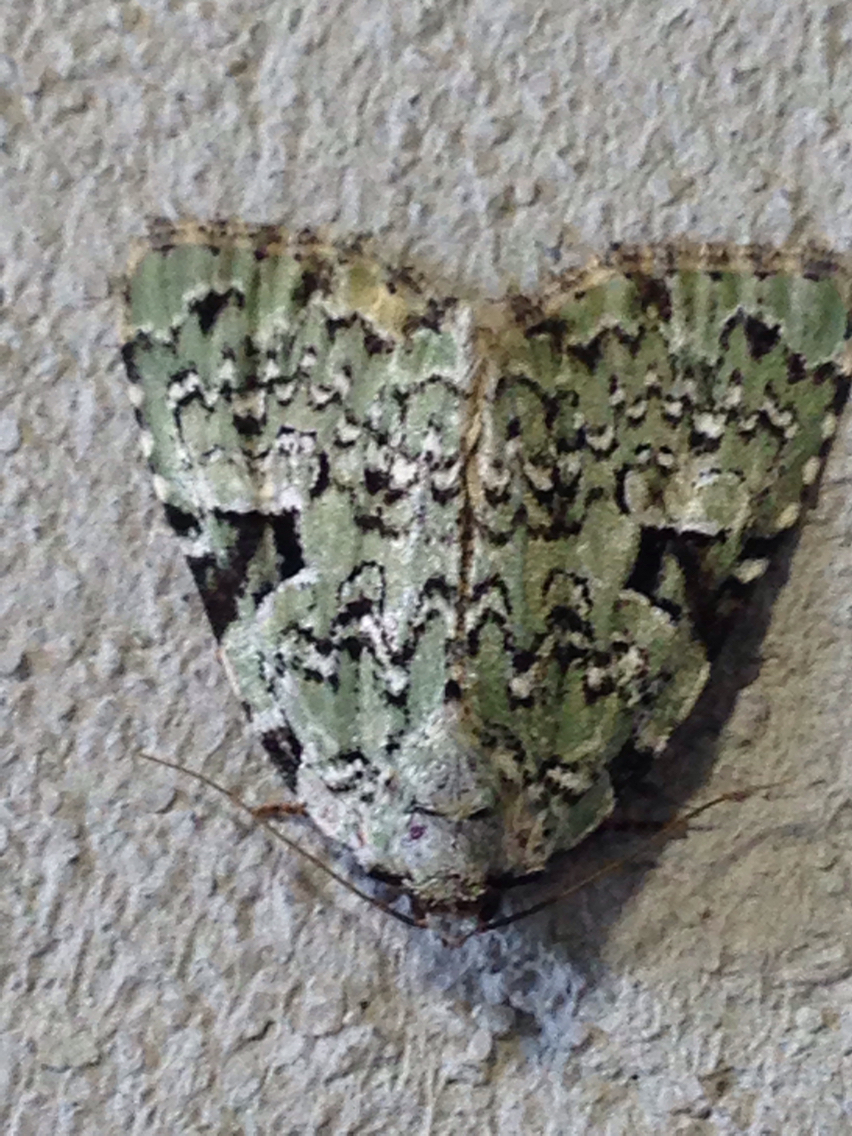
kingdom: Animalia
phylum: Arthropoda
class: Insecta
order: Lepidoptera
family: Noctuidae
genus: Leuconycta
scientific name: Leuconycta diphteroides
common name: Green leuconycta moth
